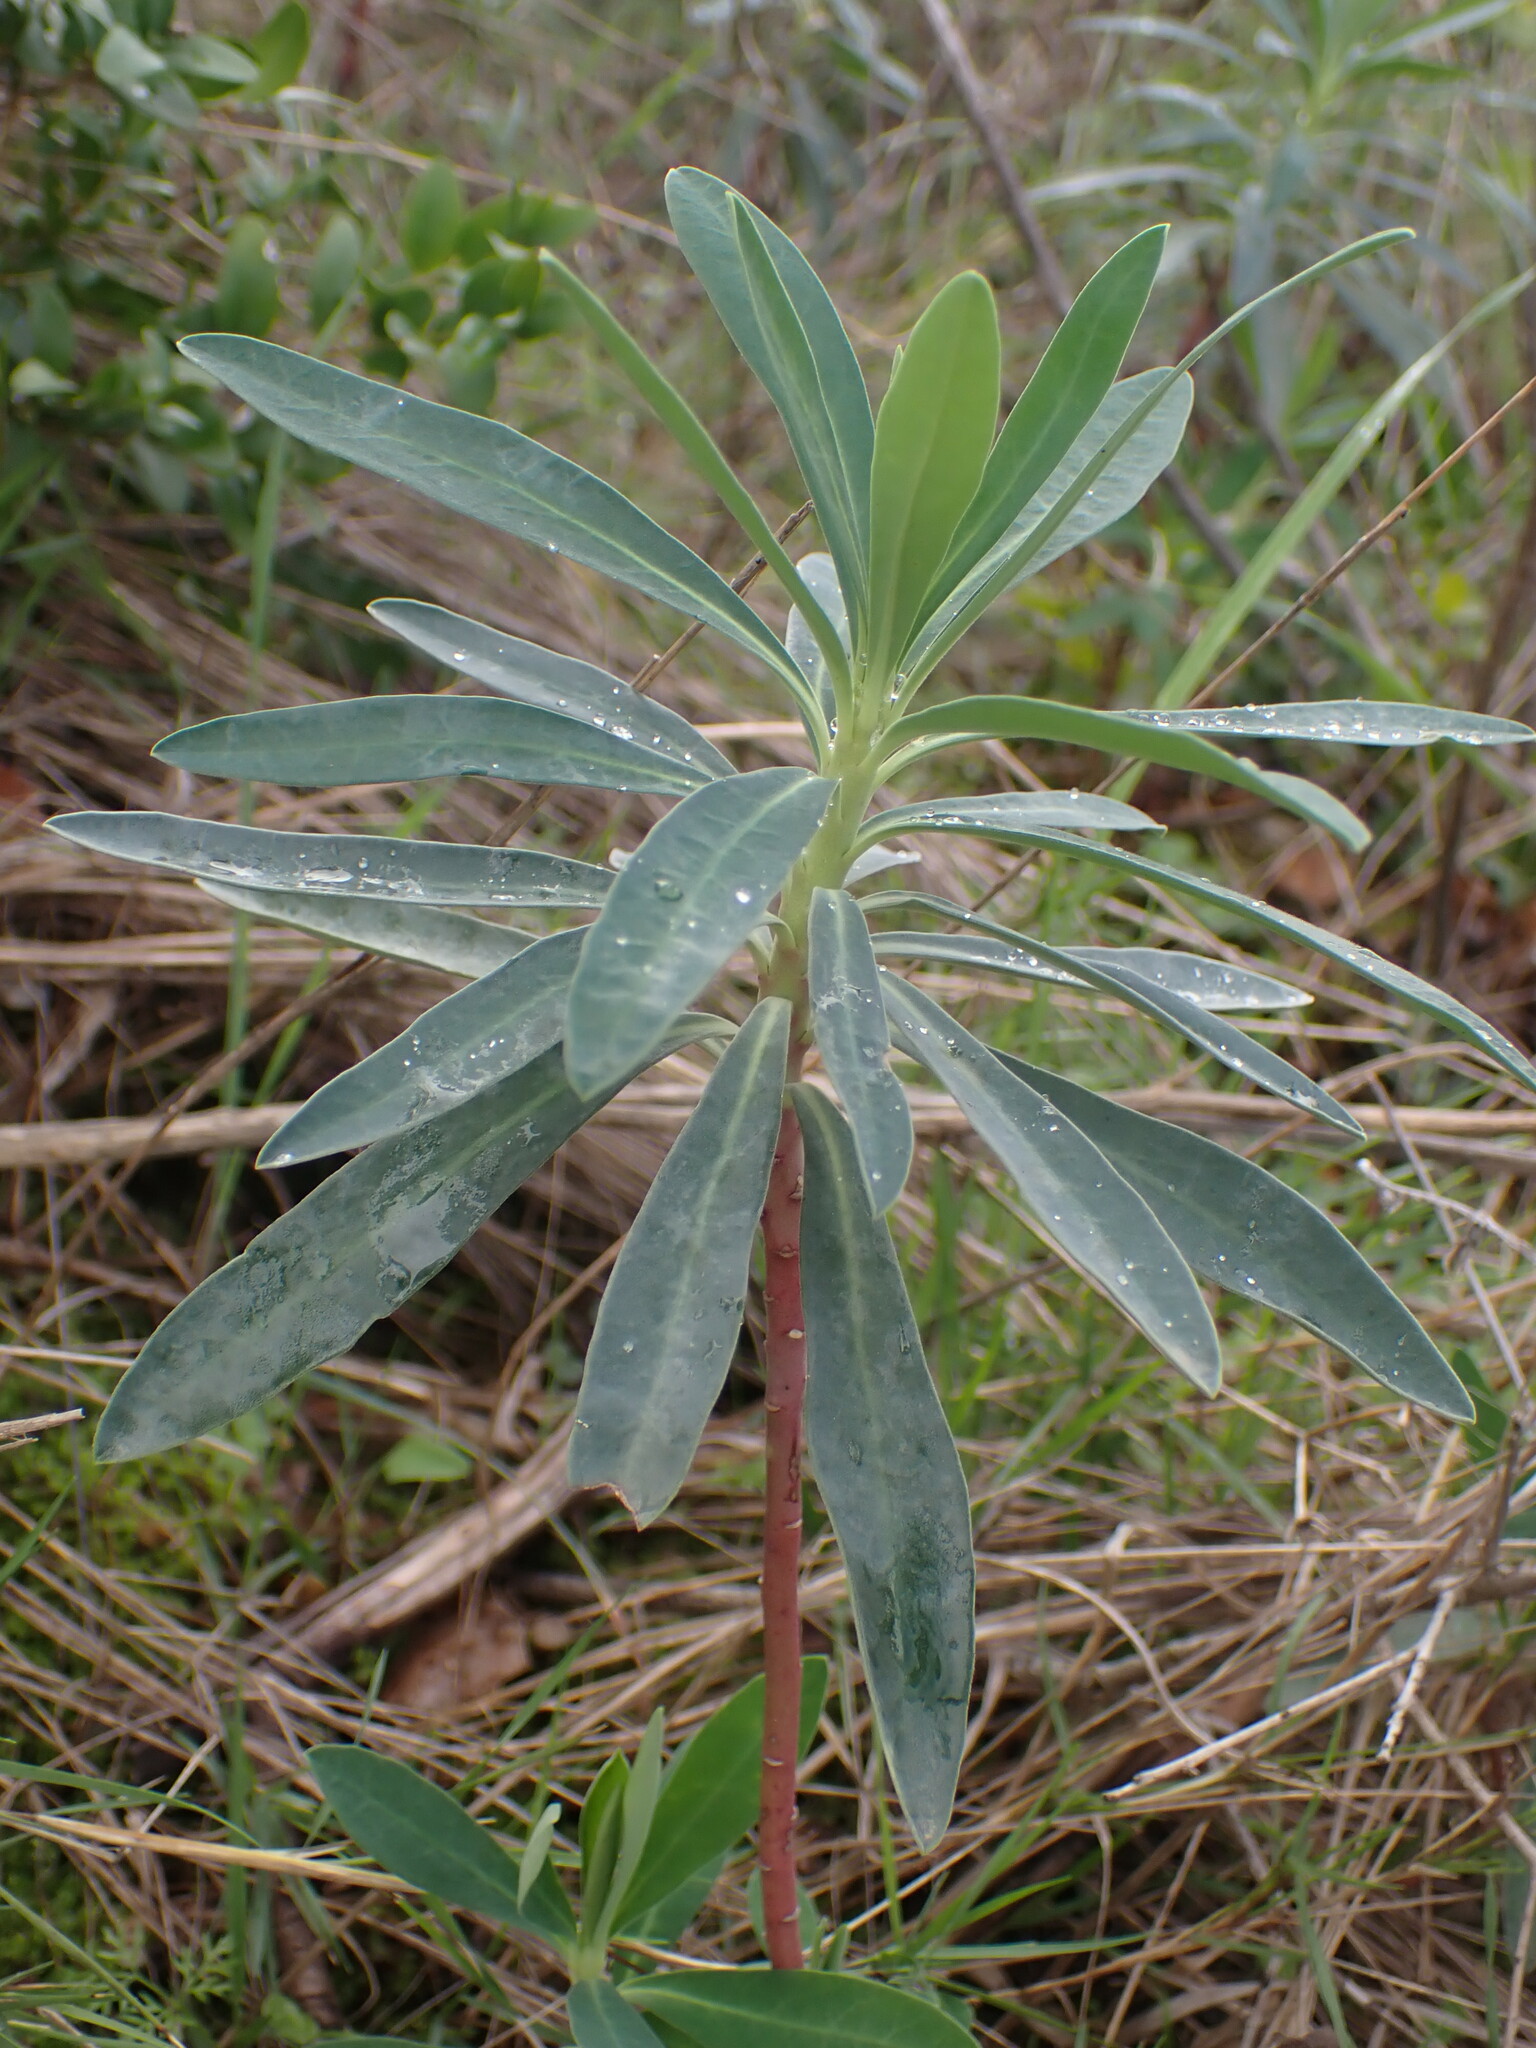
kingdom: Plantae
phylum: Tracheophyta
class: Magnoliopsida
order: Malpighiales
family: Euphorbiaceae
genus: Euphorbia
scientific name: Euphorbia characias
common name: Mediterranean spurge
